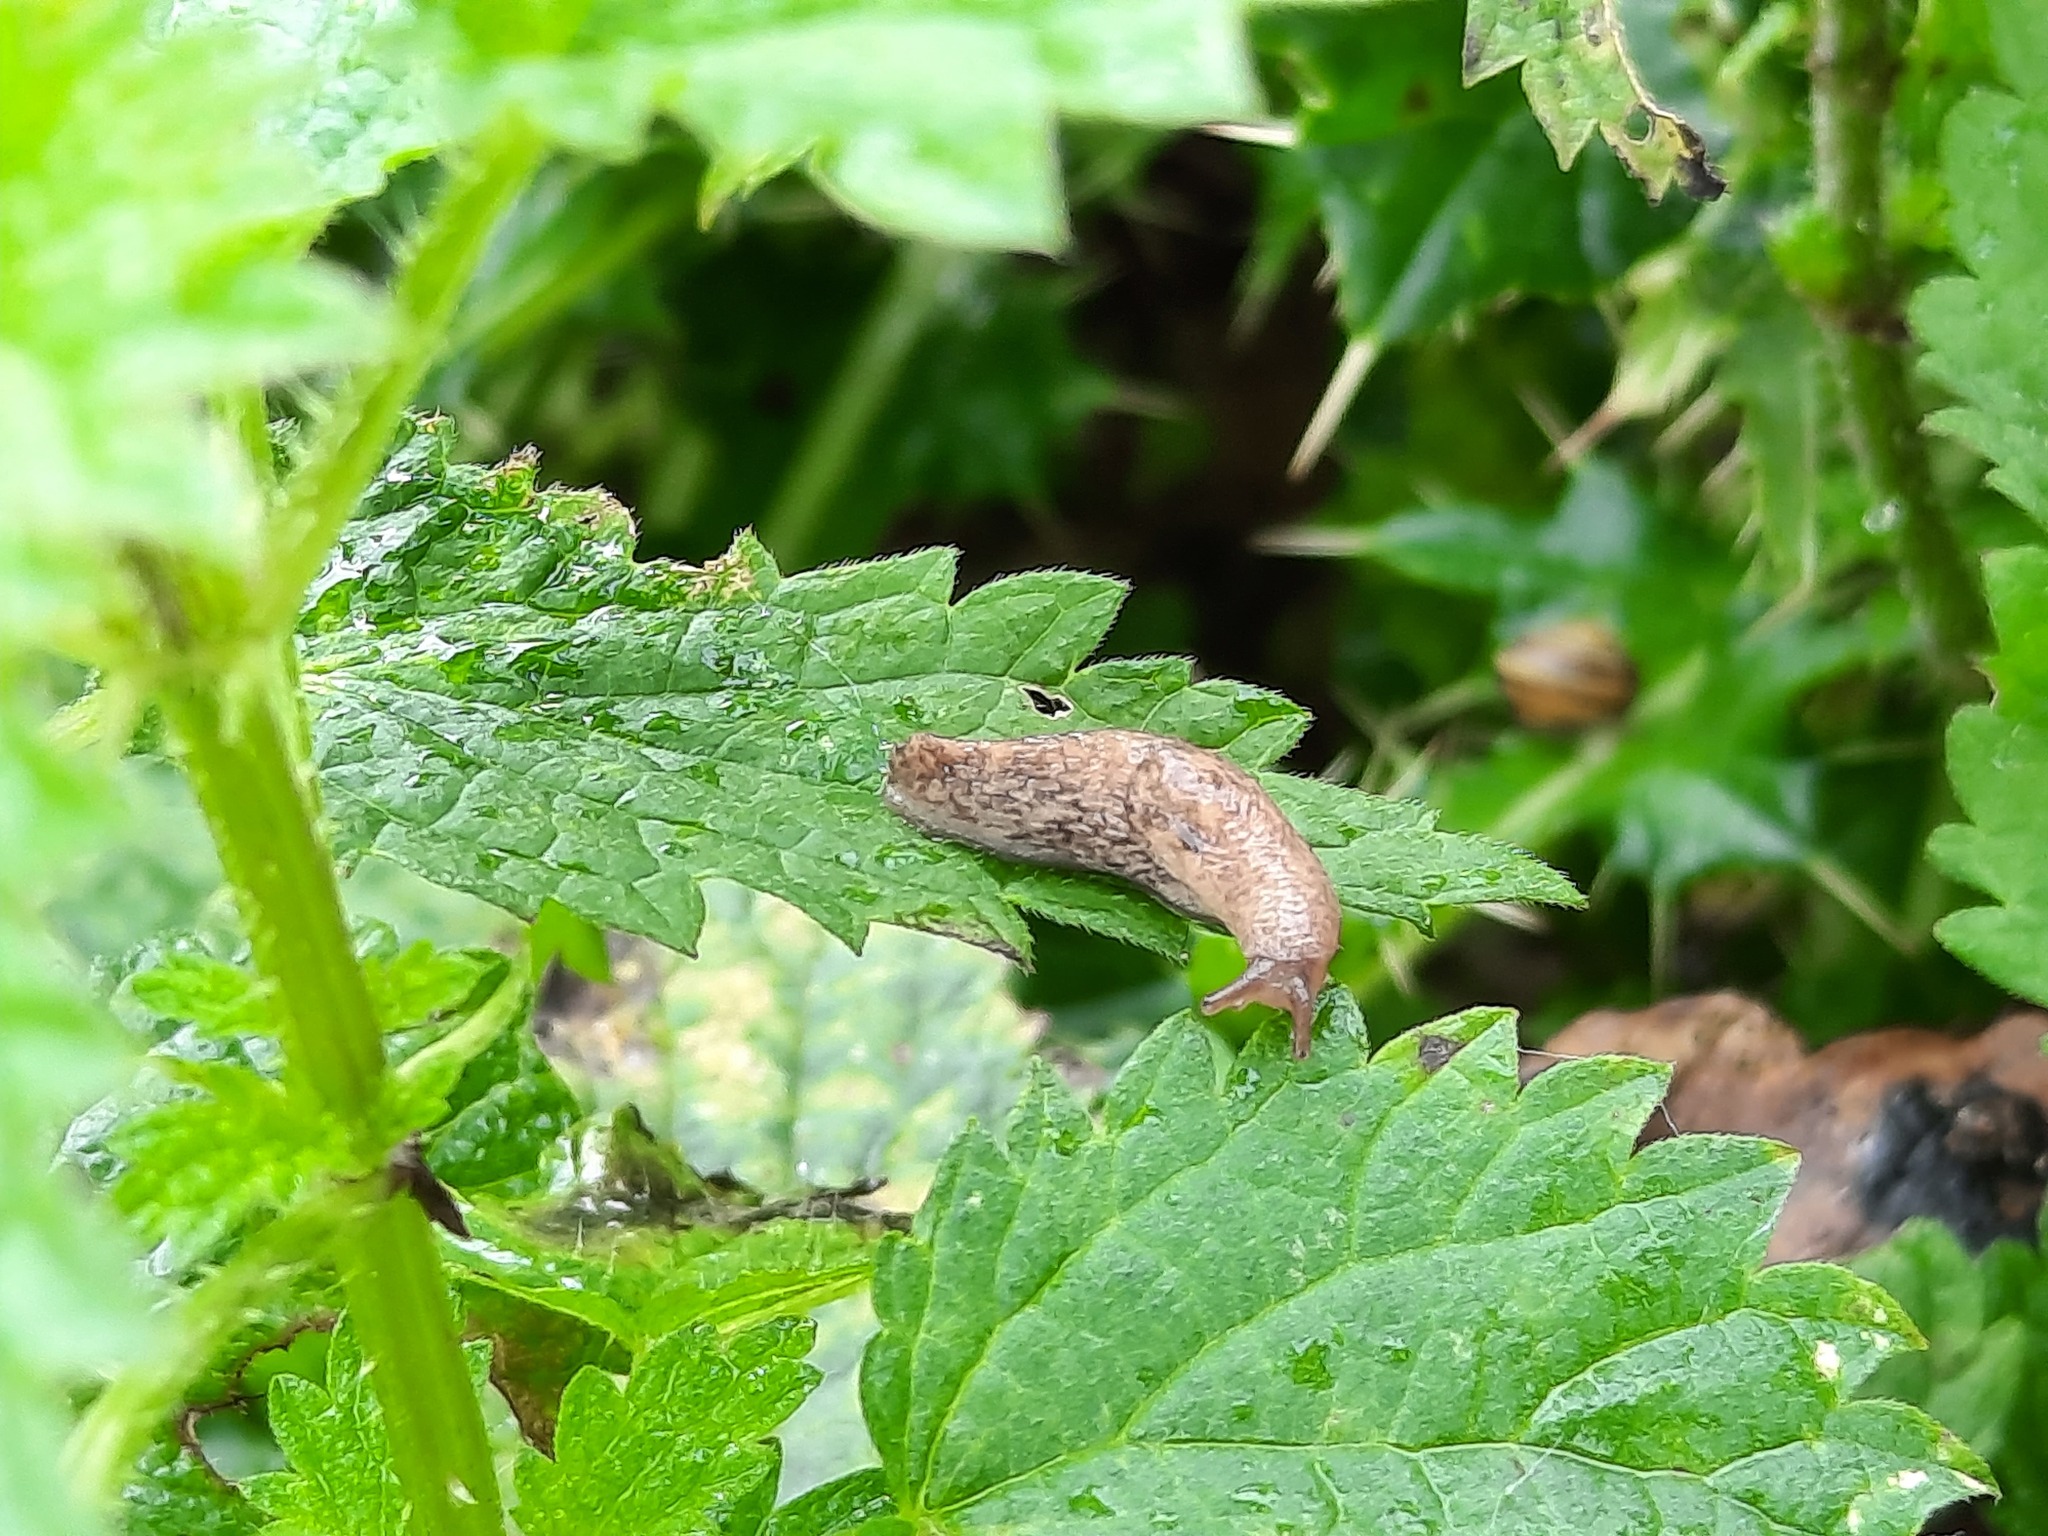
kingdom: Animalia
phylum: Mollusca
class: Gastropoda
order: Stylommatophora
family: Agriolimacidae
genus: Deroceras
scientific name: Deroceras reticulatum
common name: Gray field slug
